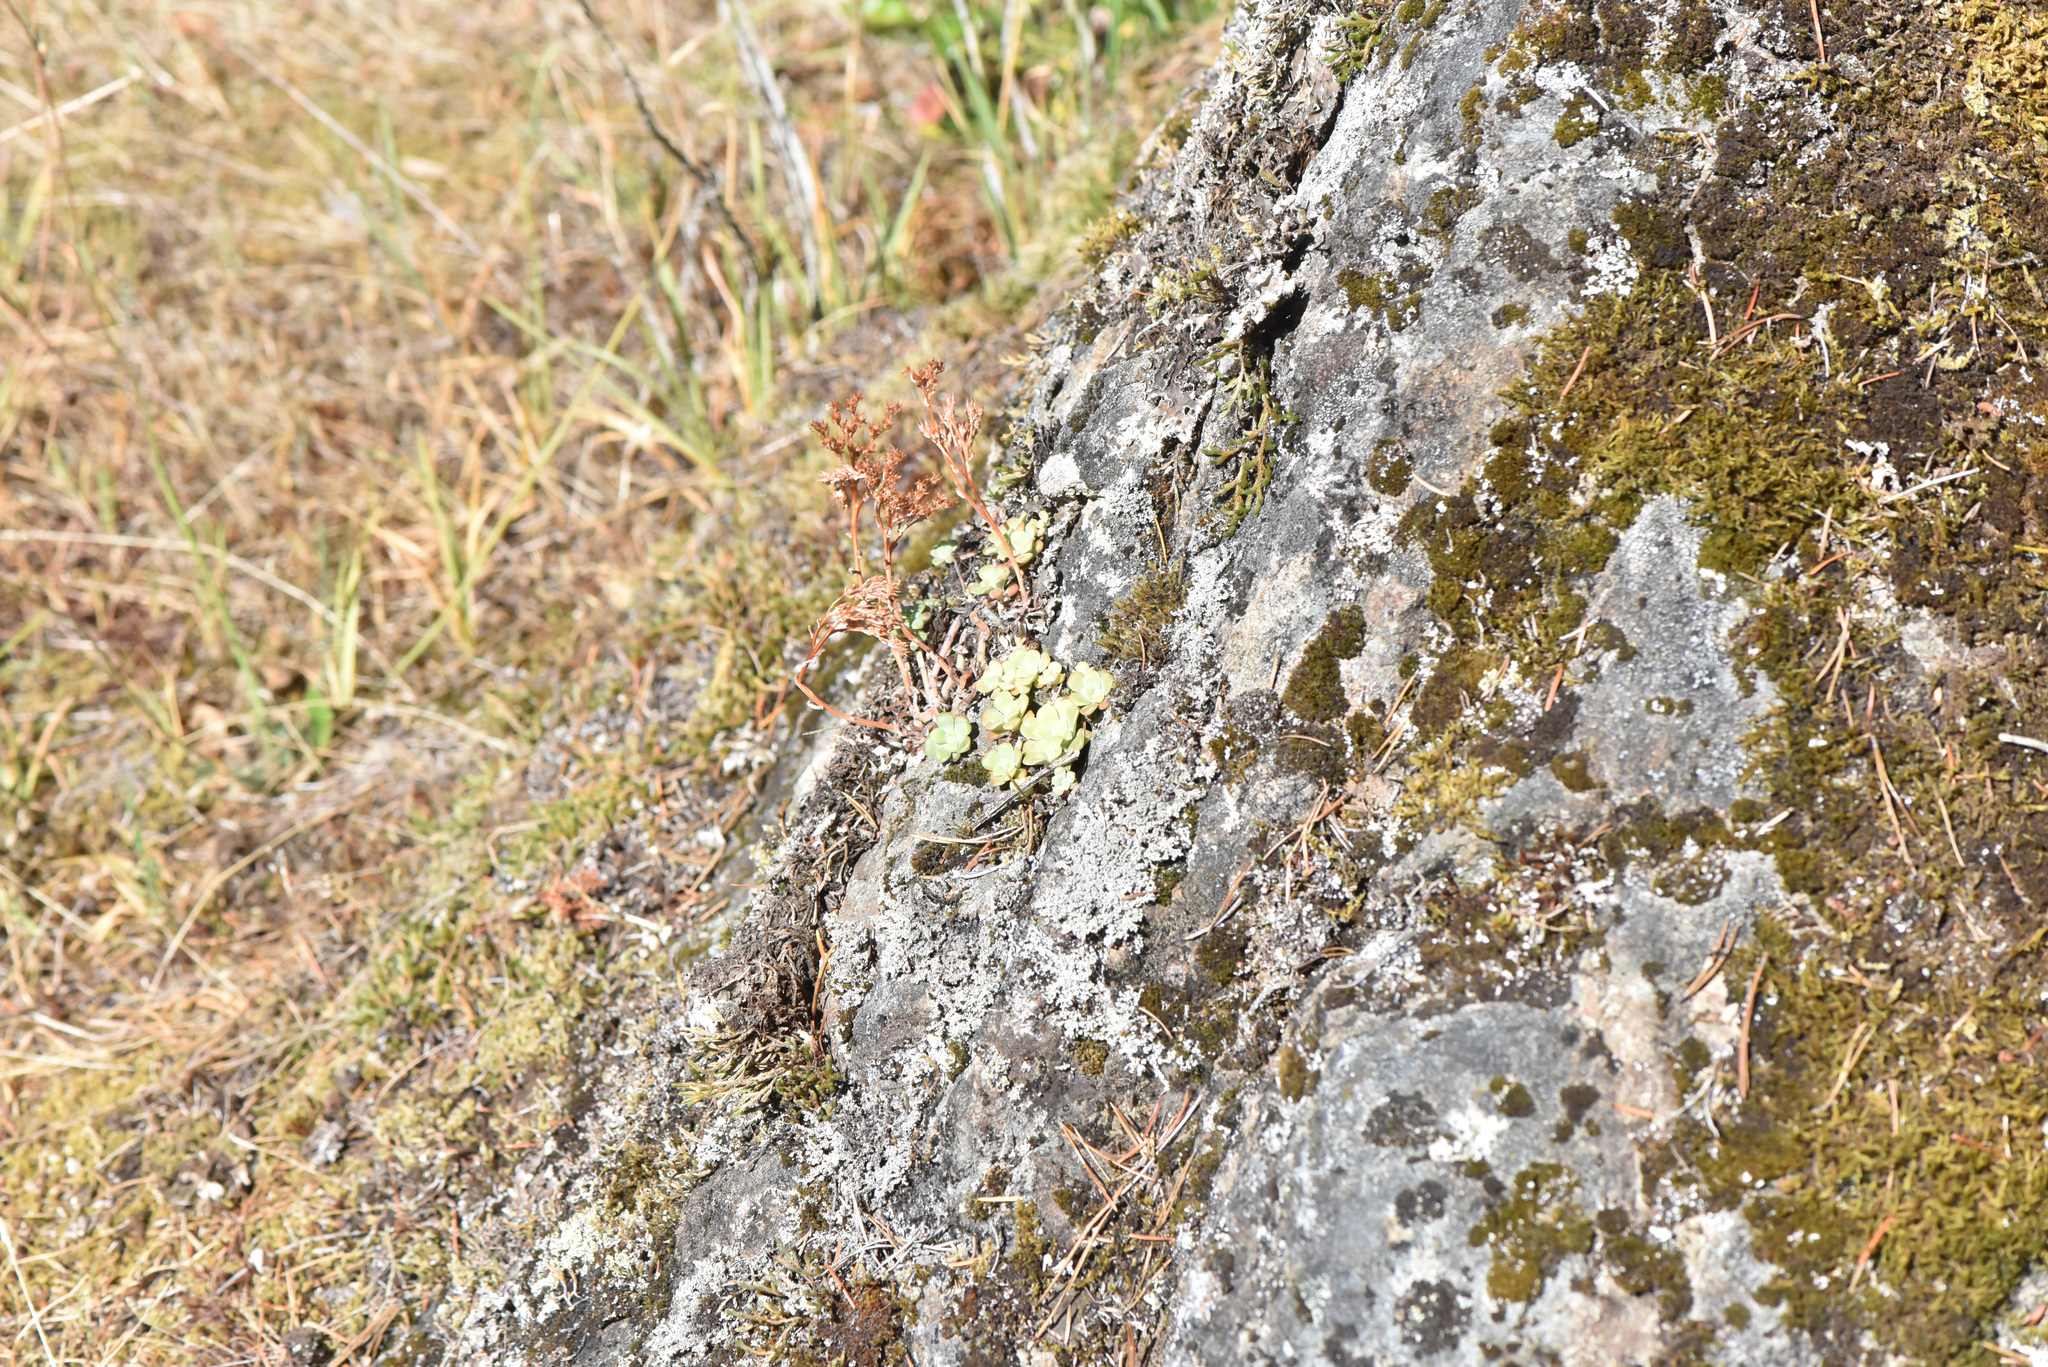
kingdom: Plantae
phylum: Tracheophyta
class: Magnoliopsida
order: Saxifragales
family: Crassulaceae
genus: Sedum
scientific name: Sedum spathulifolium
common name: Colorado stonecrop
